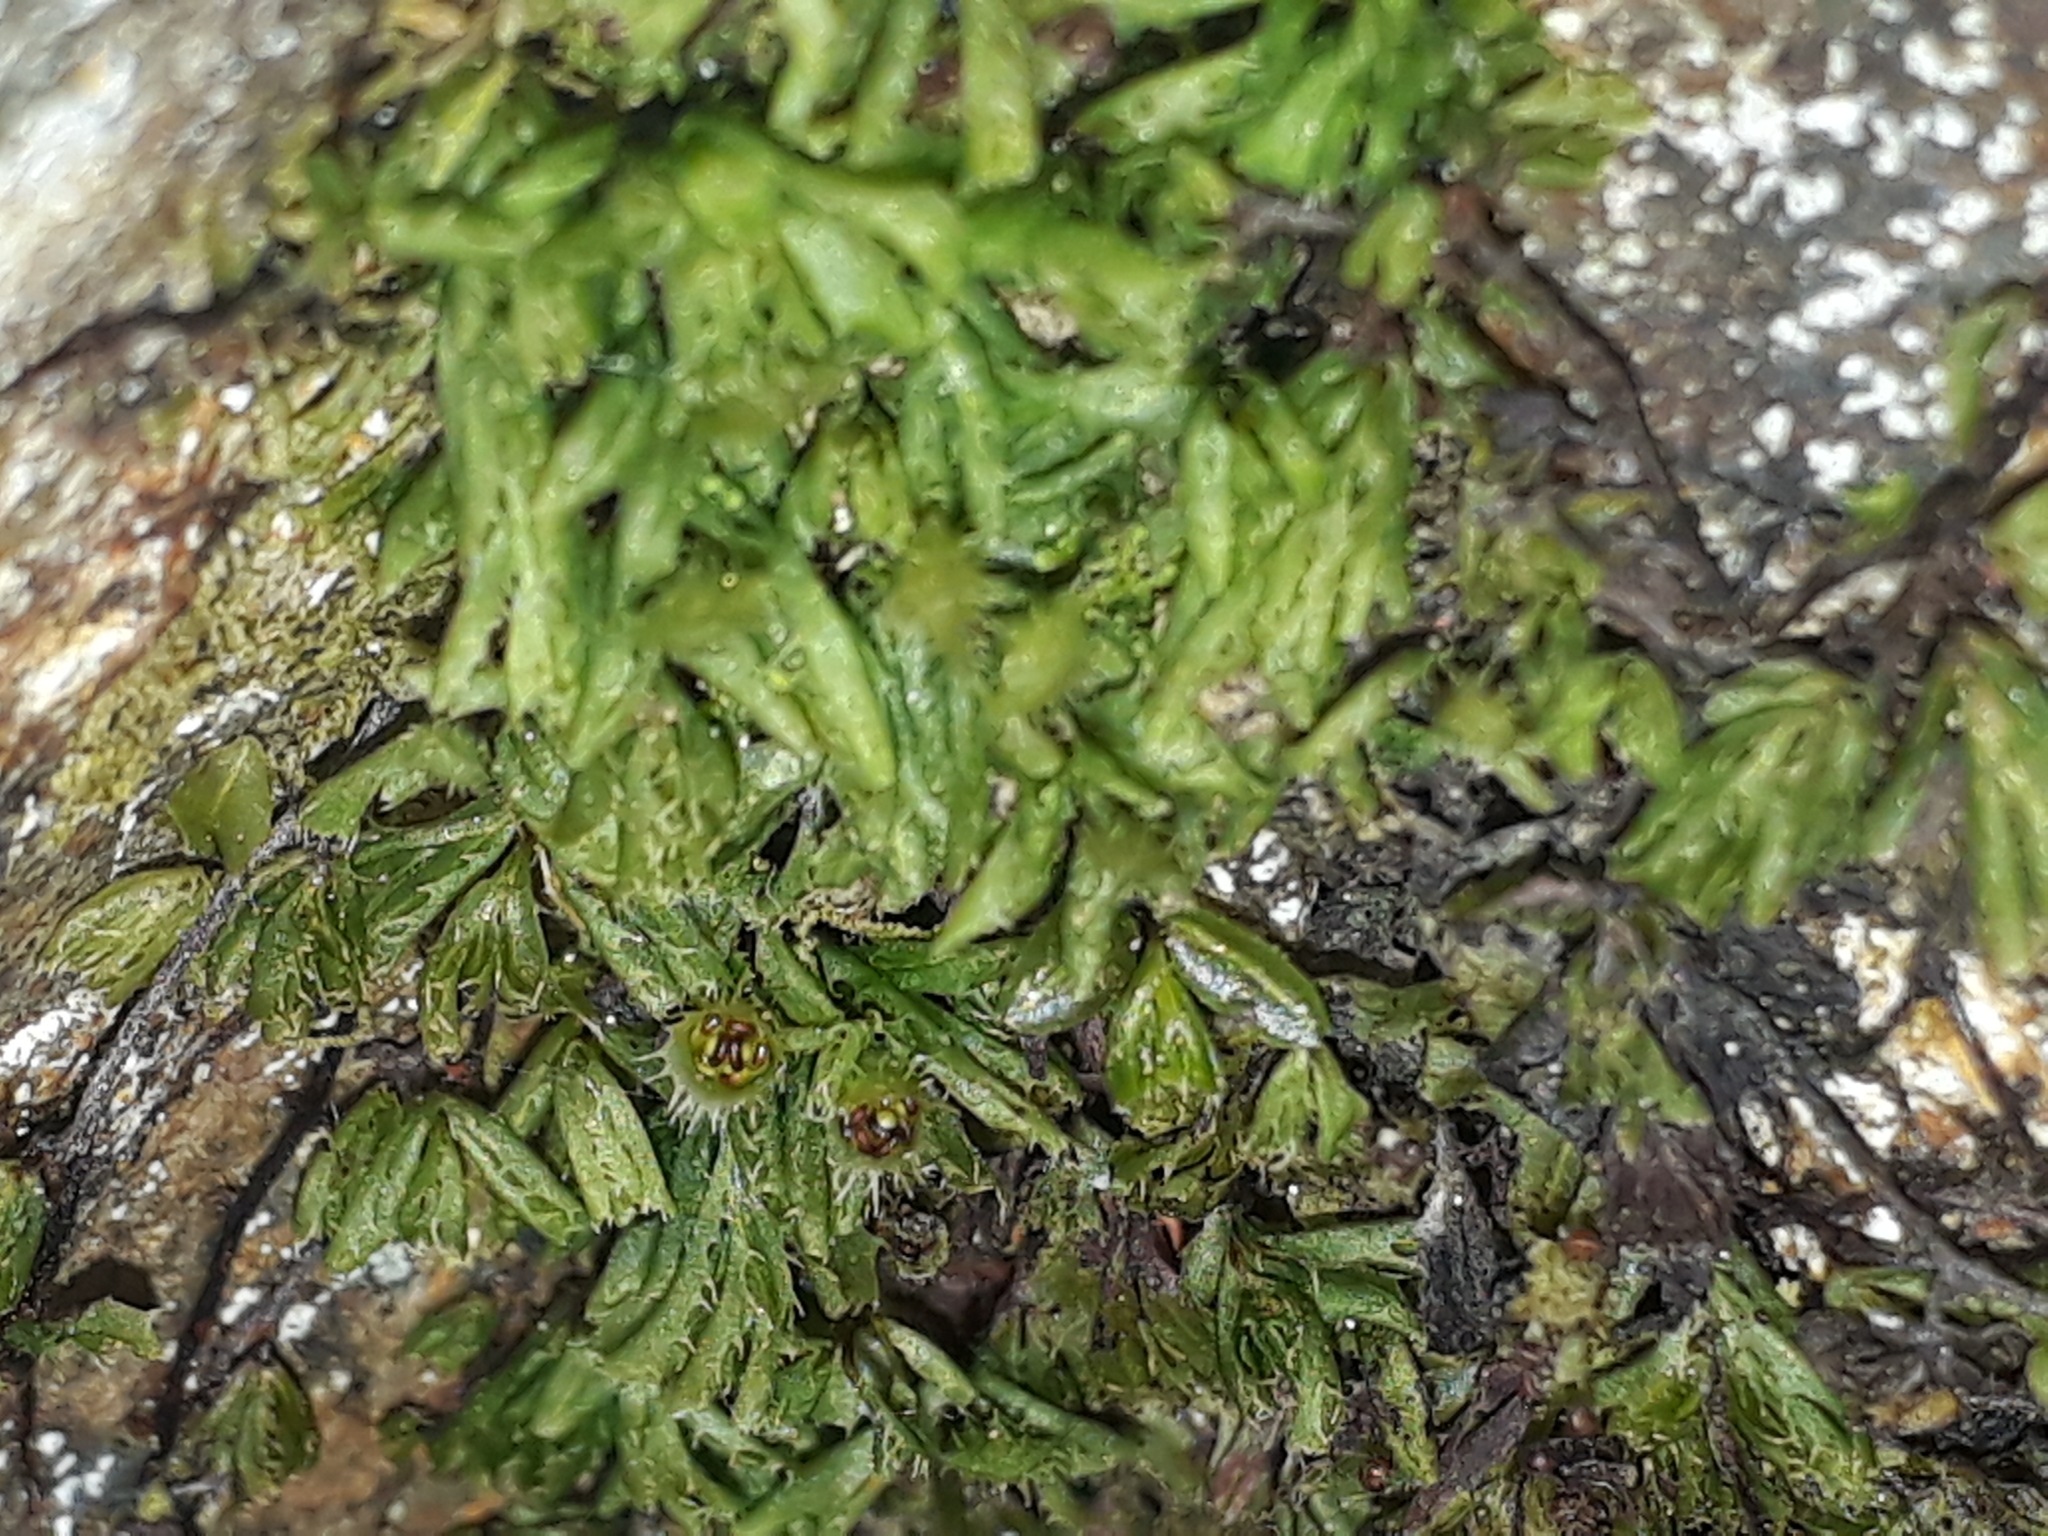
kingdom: Plantae
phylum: Tracheophyta
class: Polypodiopsida
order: Hymenophyllales
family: Hymenophyllaceae
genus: Hymenophyllum
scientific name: Hymenophyllum minimum
